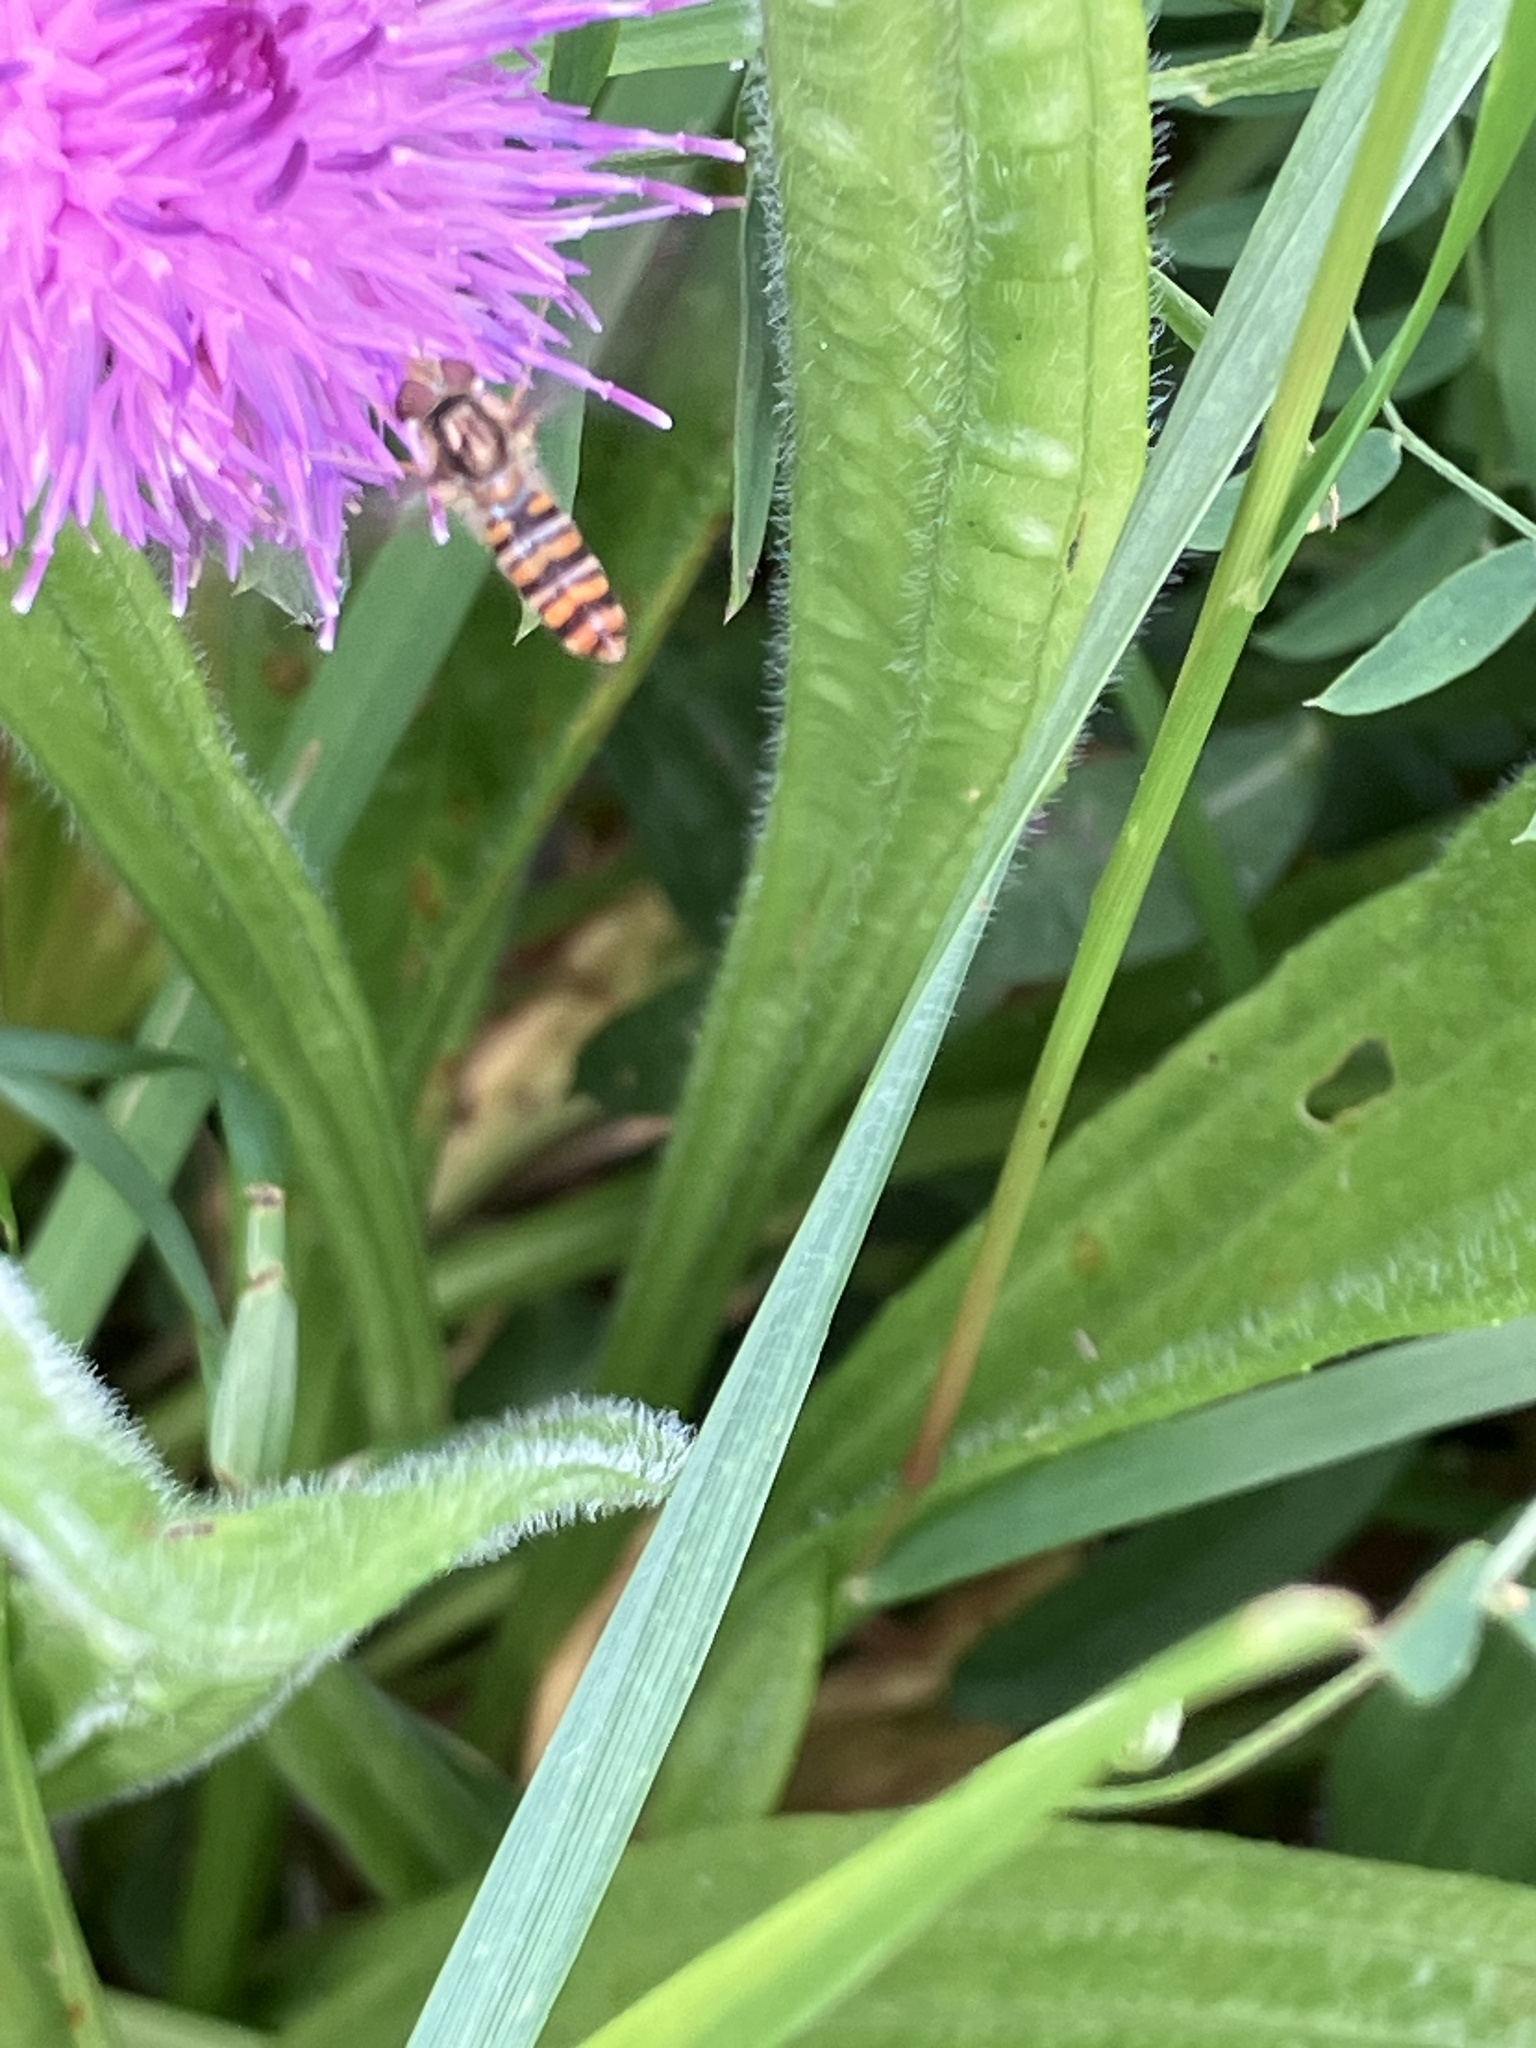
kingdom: Animalia
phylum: Arthropoda
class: Insecta
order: Diptera
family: Syrphidae
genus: Episyrphus
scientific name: Episyrphus balteatus
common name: Marmalade hoverfly
